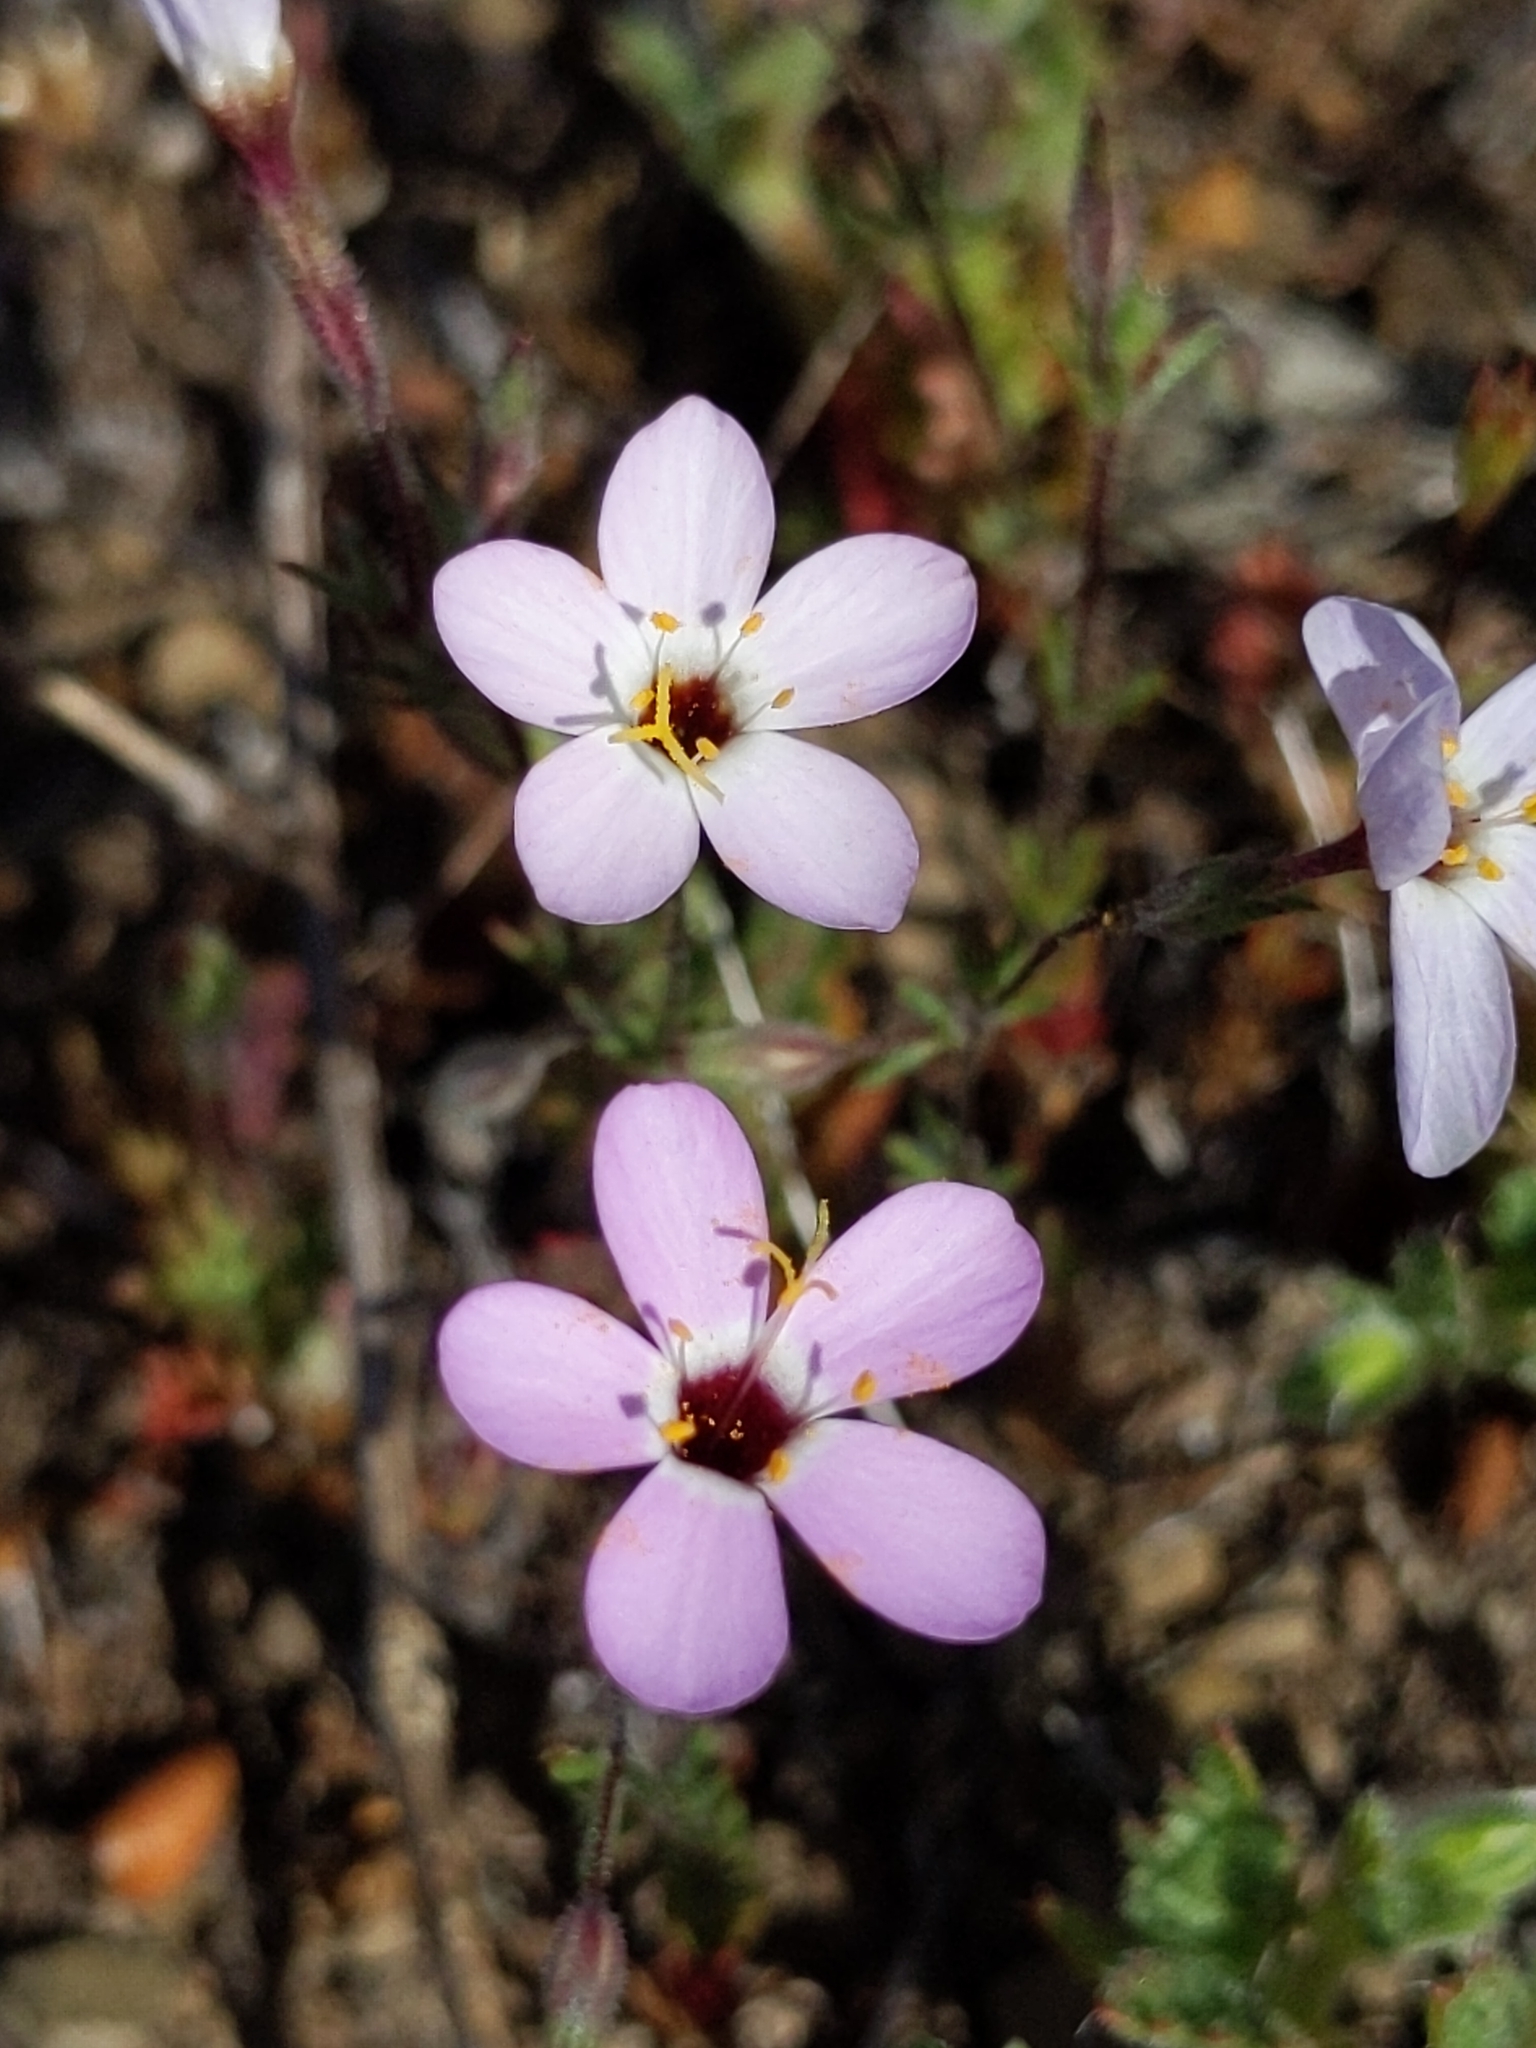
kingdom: Plantae
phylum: Tracheophyta
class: Magnoliopsida
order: Ericales
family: Polemoniaceae
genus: Leptosiphon
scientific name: Leptosiphon ambiguus
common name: Serpentine linanthus
